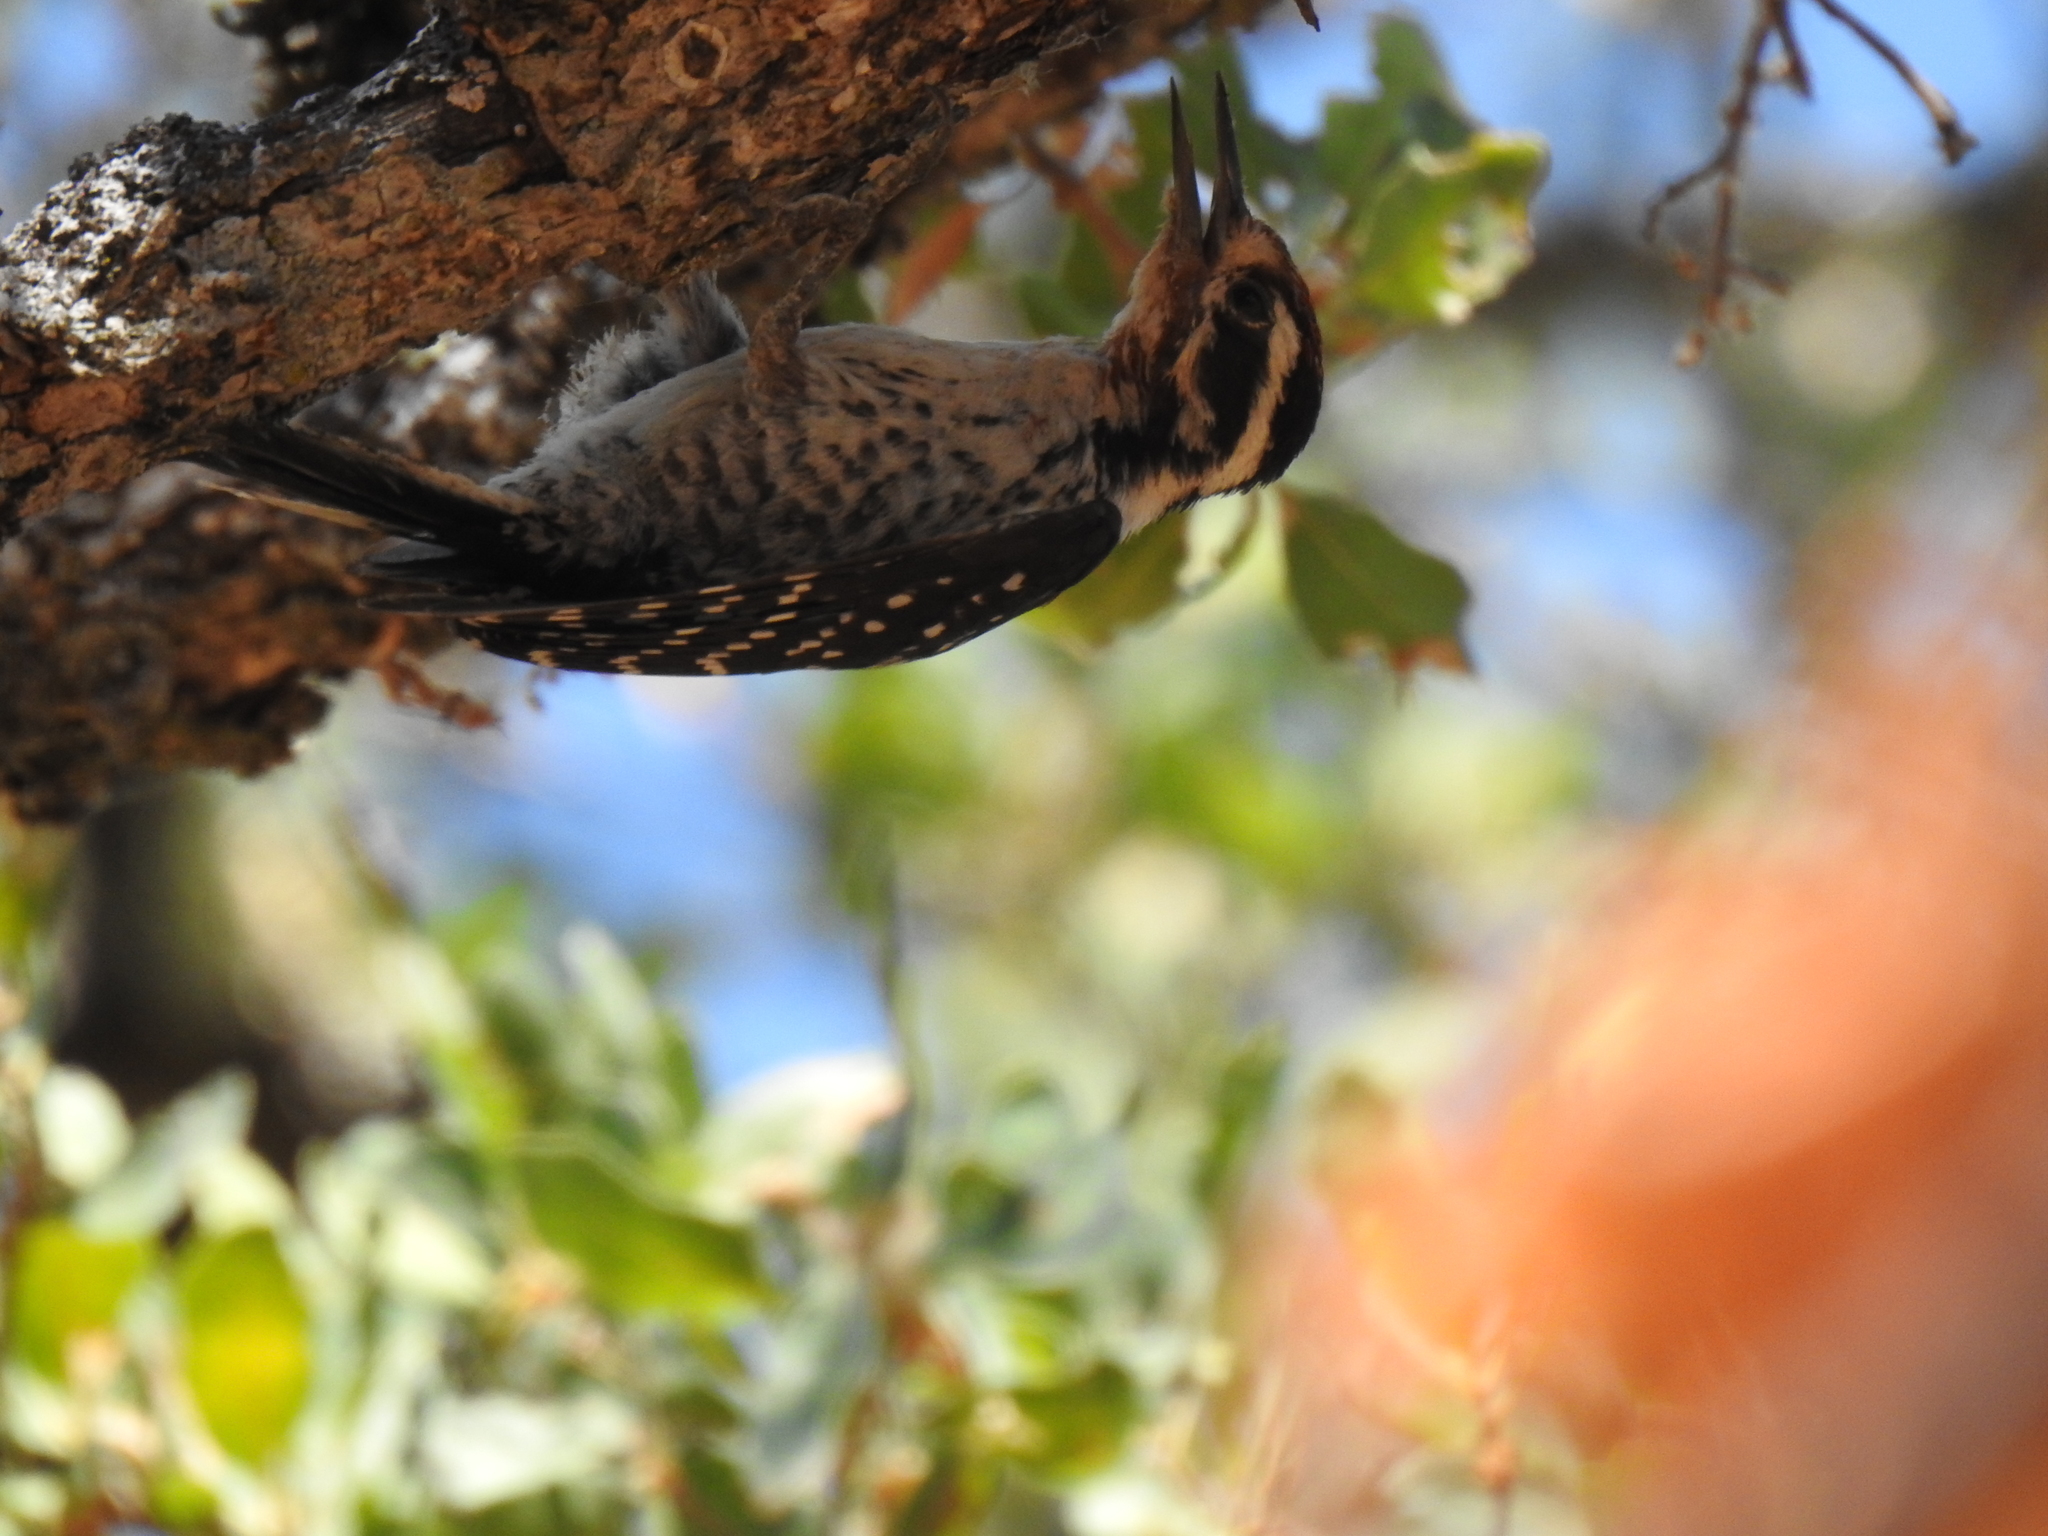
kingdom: Animalia
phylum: Chordata
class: Aves
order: Piciformes
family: Picidae
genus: Dryobates
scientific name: Dryobates nuttallii
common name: Nuttall's woodpecker
